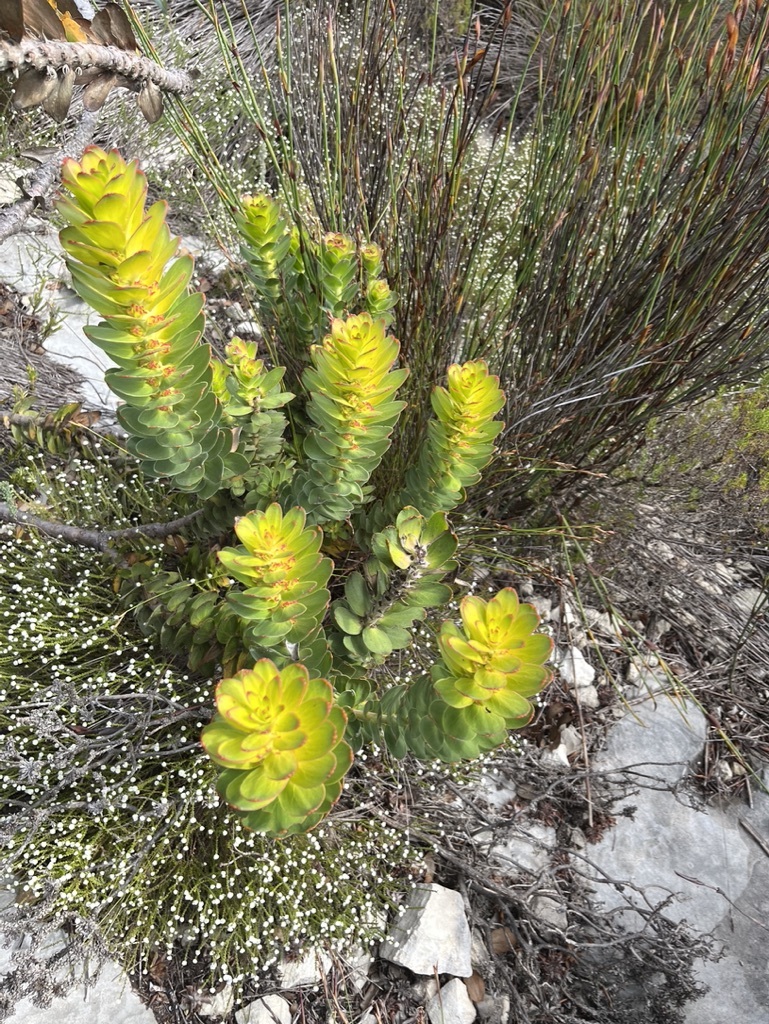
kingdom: Plantae
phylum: Tracheophyta
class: Magnoliopsida
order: Proteales
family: Proteaceae
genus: Mimetes
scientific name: Mimetes saxatilis
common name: Limestone pagoda
